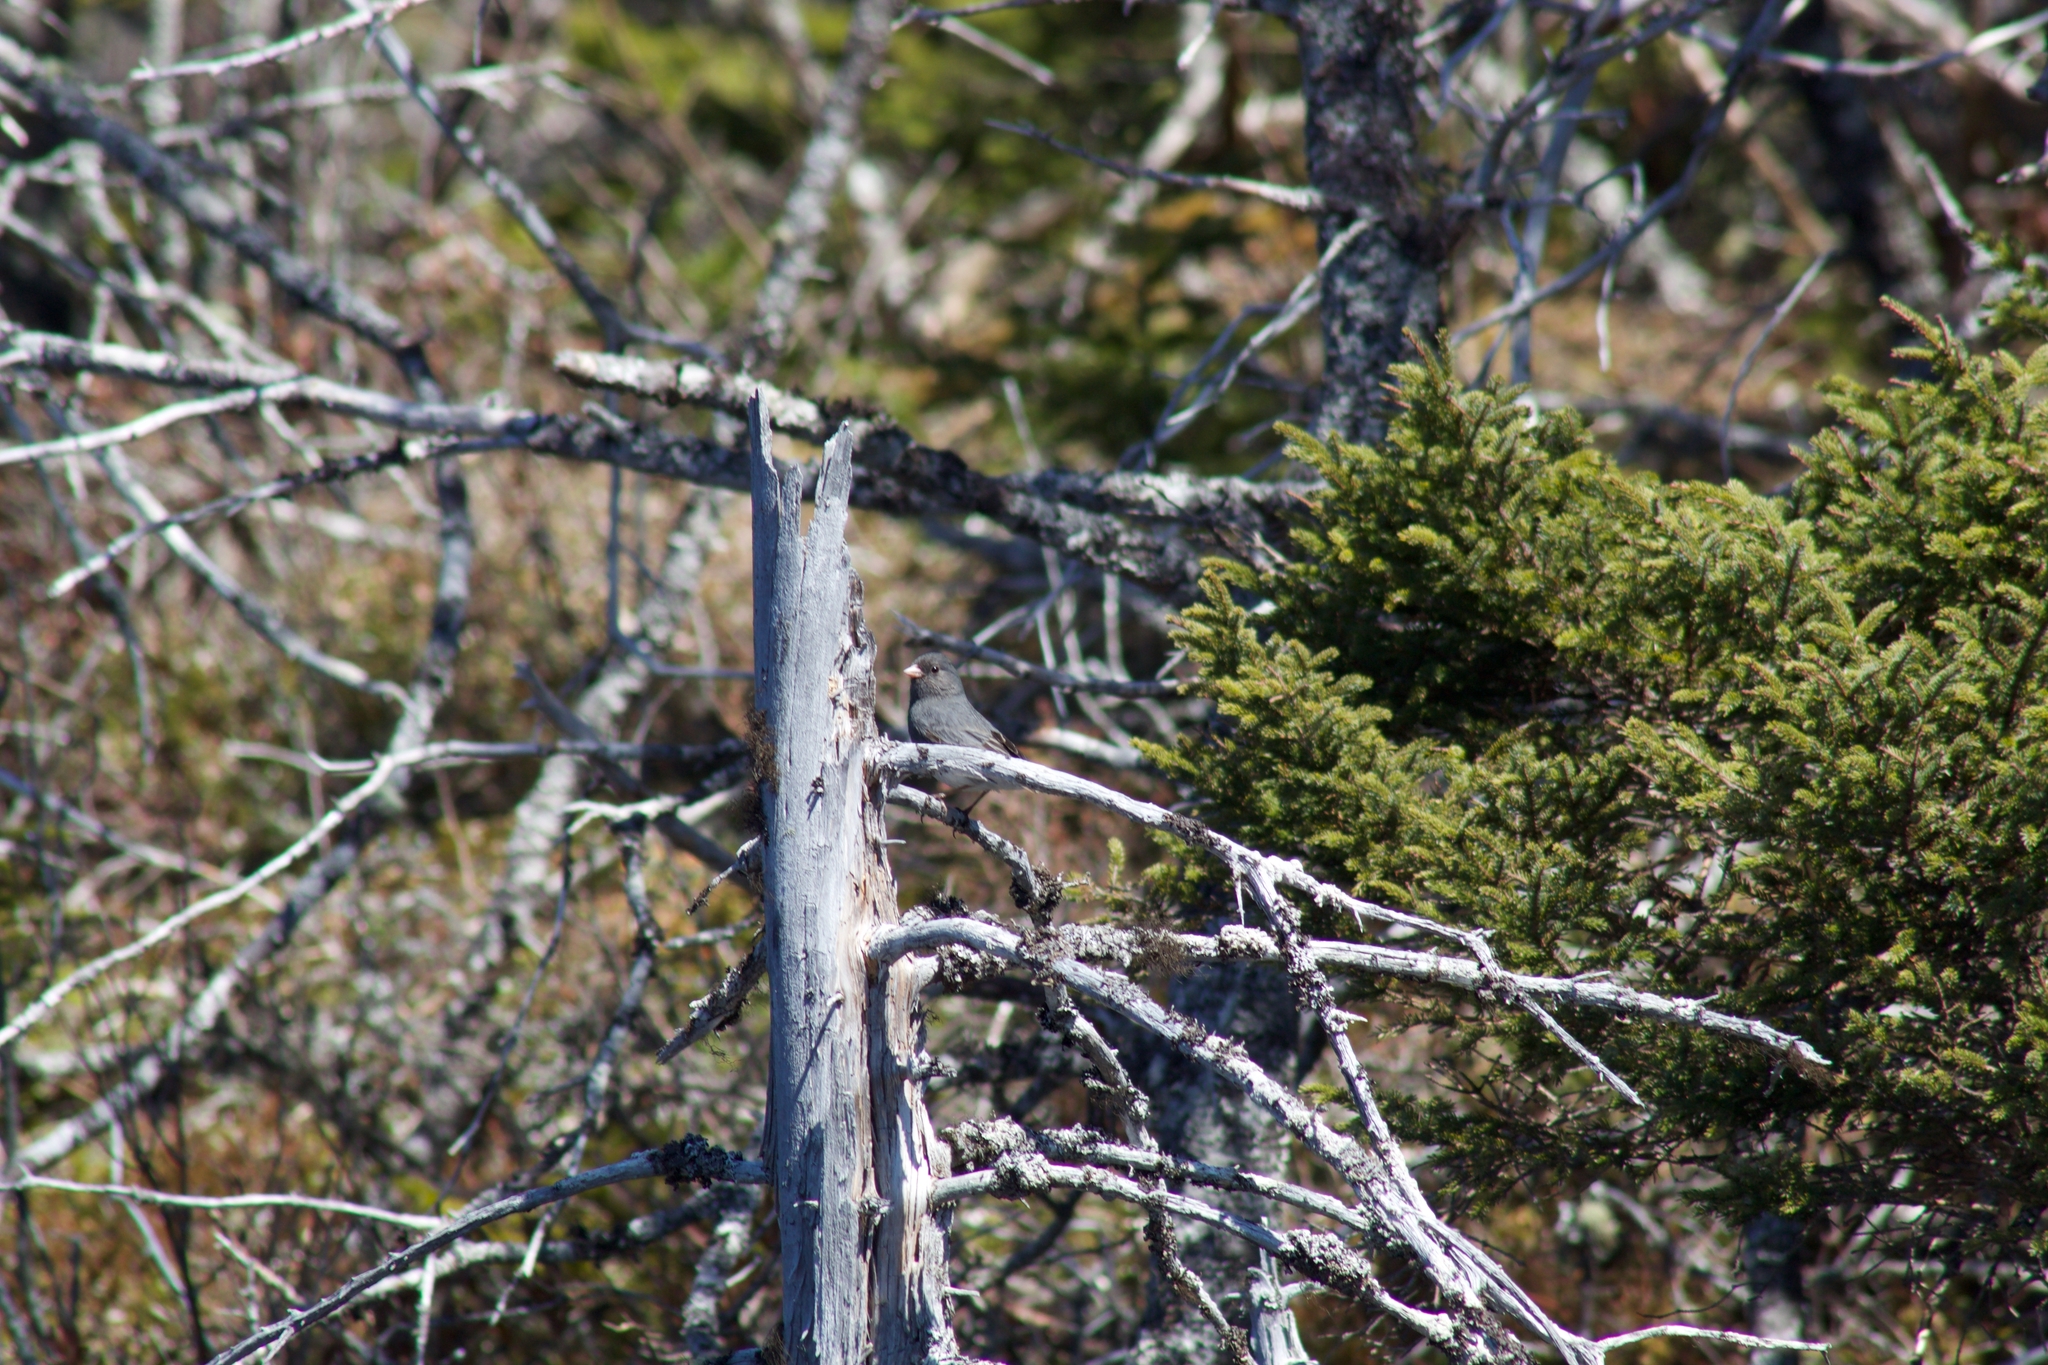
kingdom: Animalia
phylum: Chordata
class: Aves
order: Passeriformes
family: Passerellidae
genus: Junco
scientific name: Junco hyemalis
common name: Dark-eyed junco
